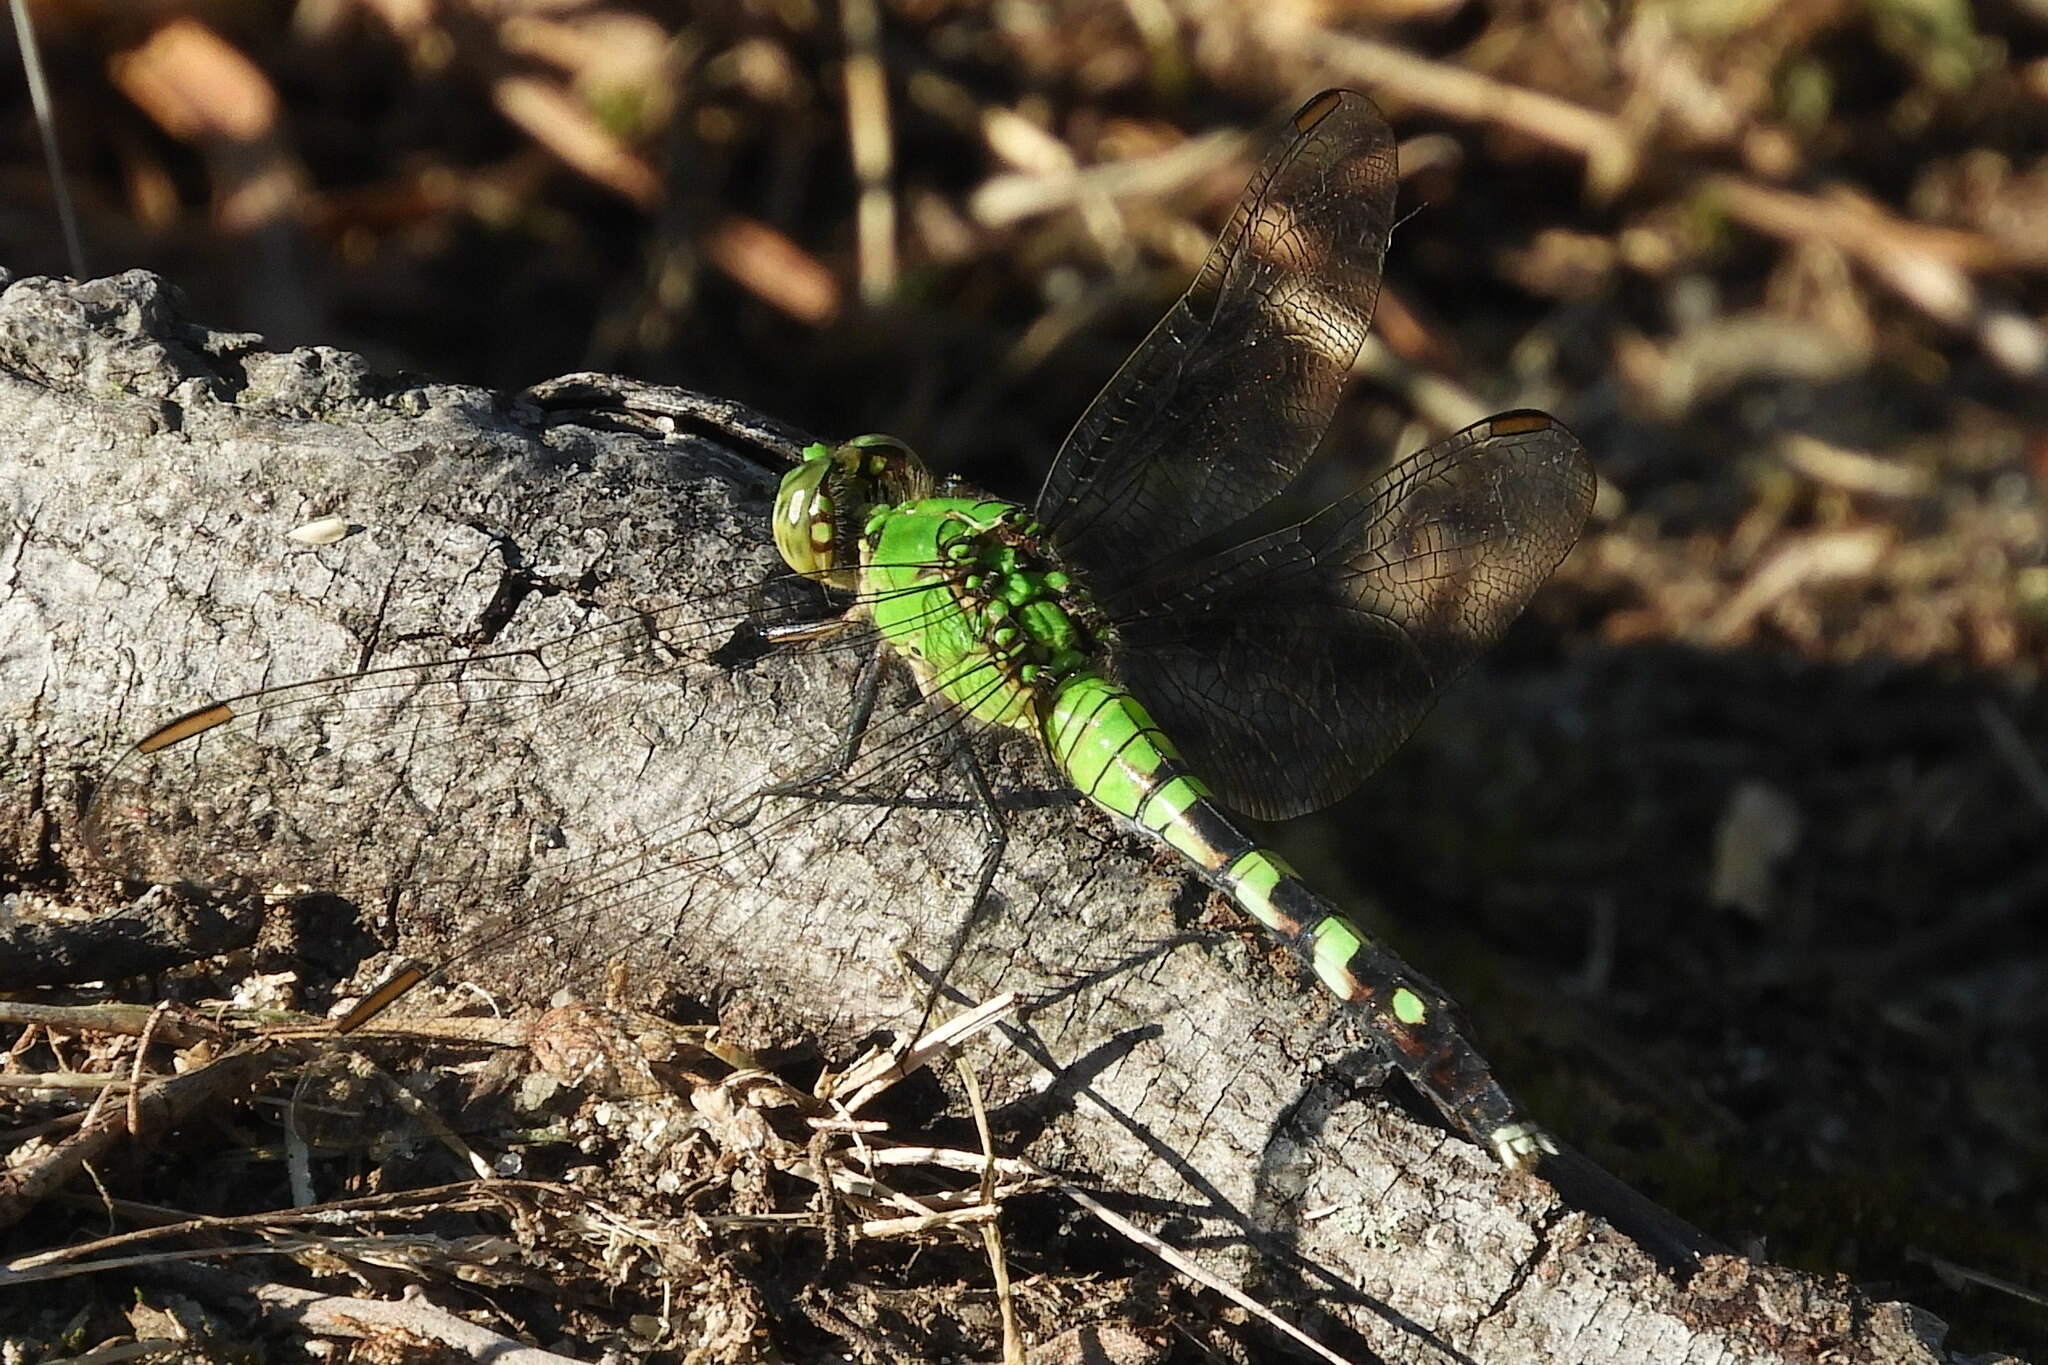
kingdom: Animalia
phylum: Arthropoda
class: Insecta
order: Odonata
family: Libellulidae
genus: Erythemis
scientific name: Erythemis simplicicollis
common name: Eastern pondhawk
